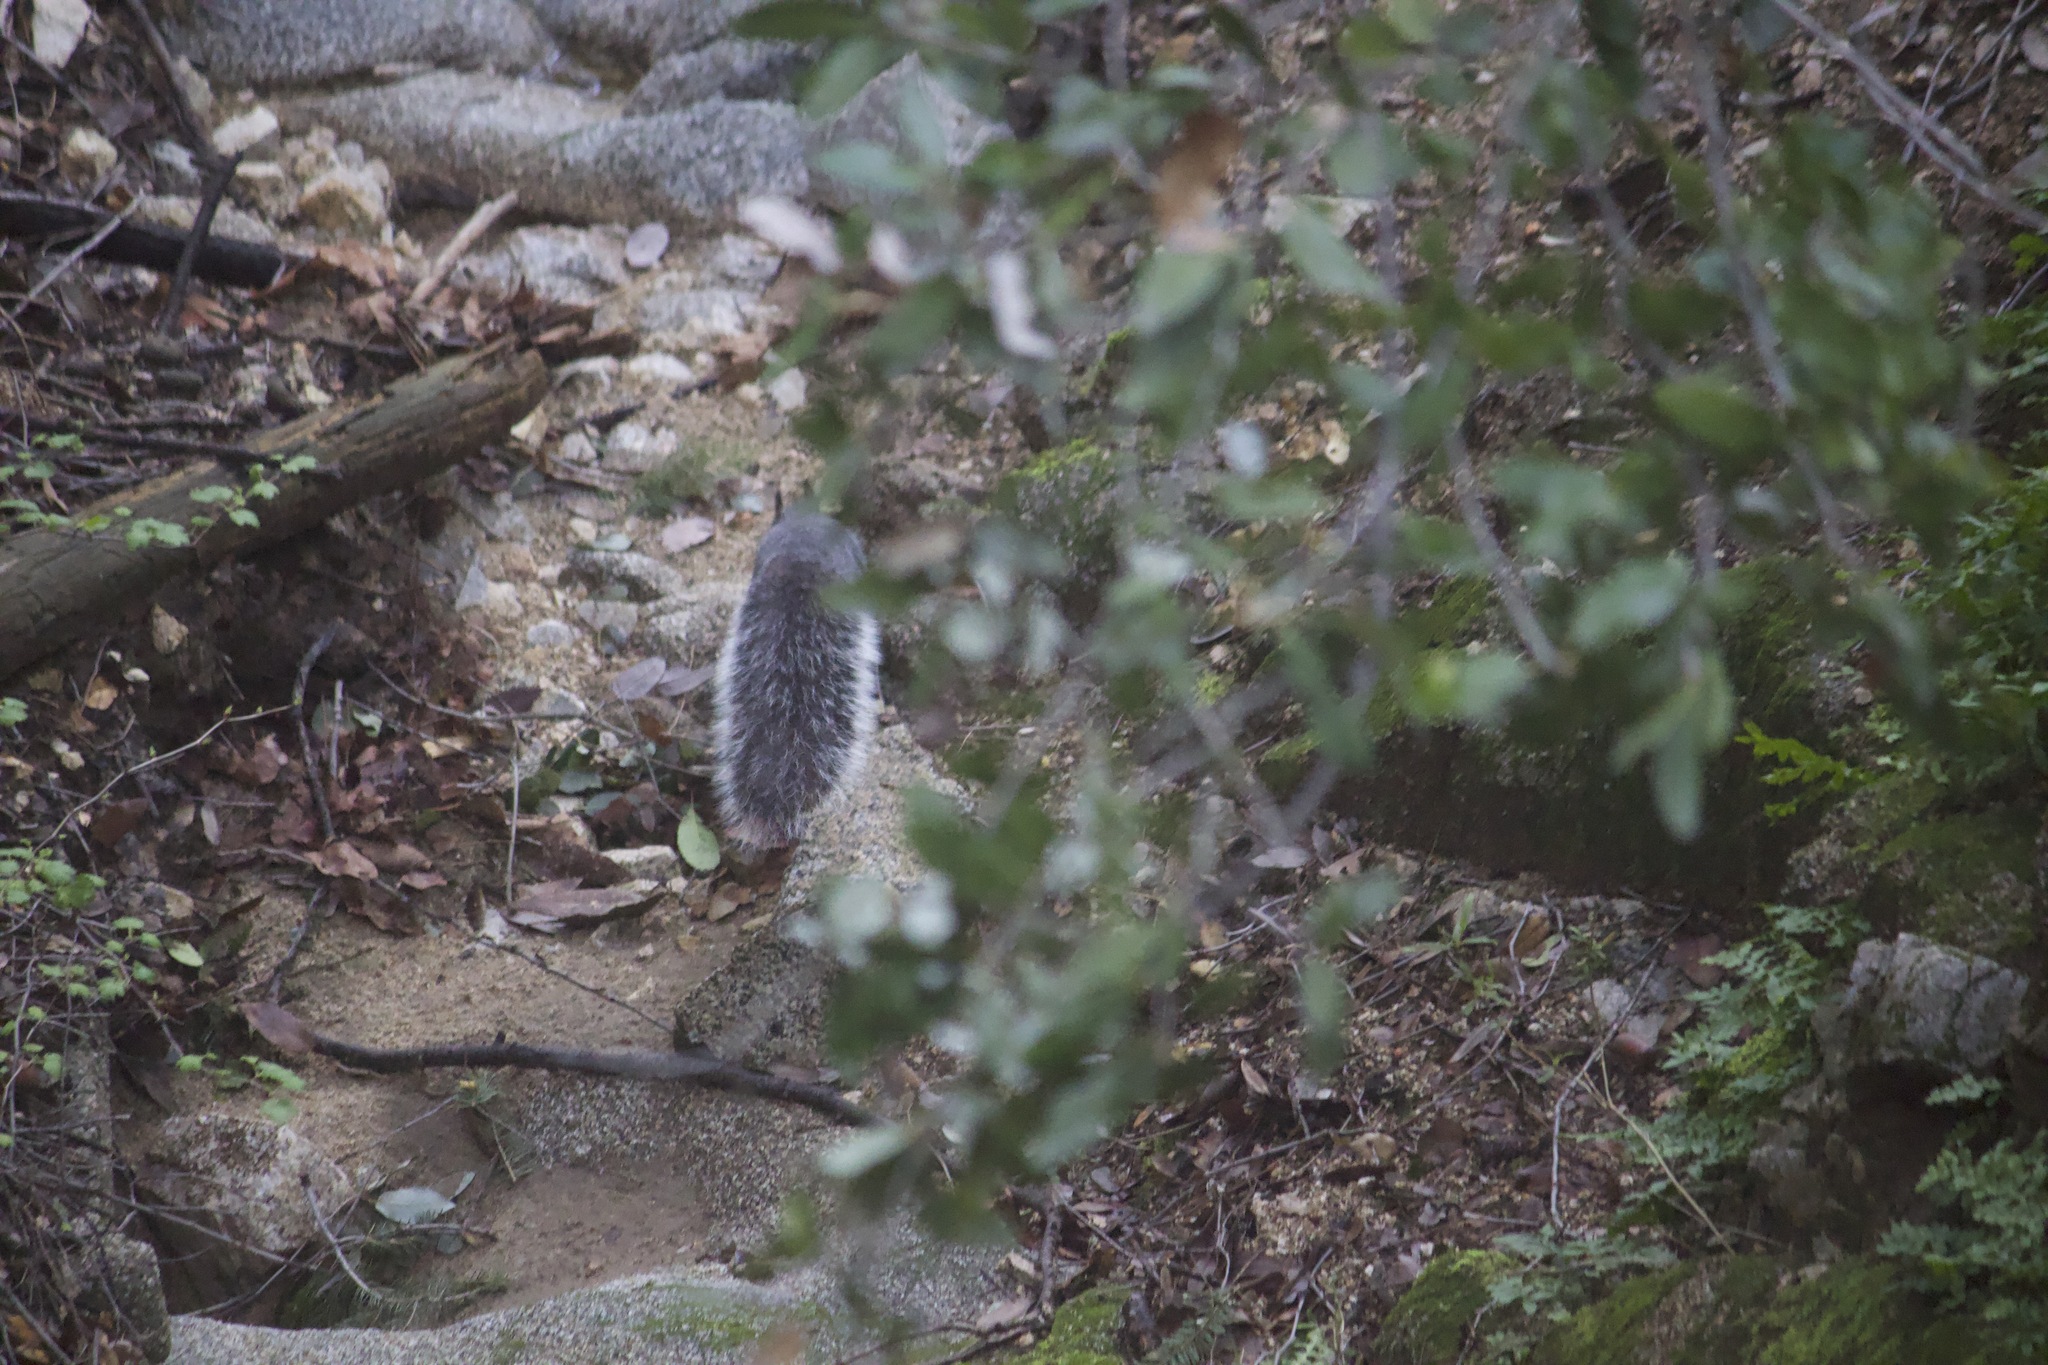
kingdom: Animalia
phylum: Chordata
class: Mammalia
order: Rodentia
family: Sciuridae
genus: Sciurus
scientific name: Sciurus griseus
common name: Western gray squirrel
